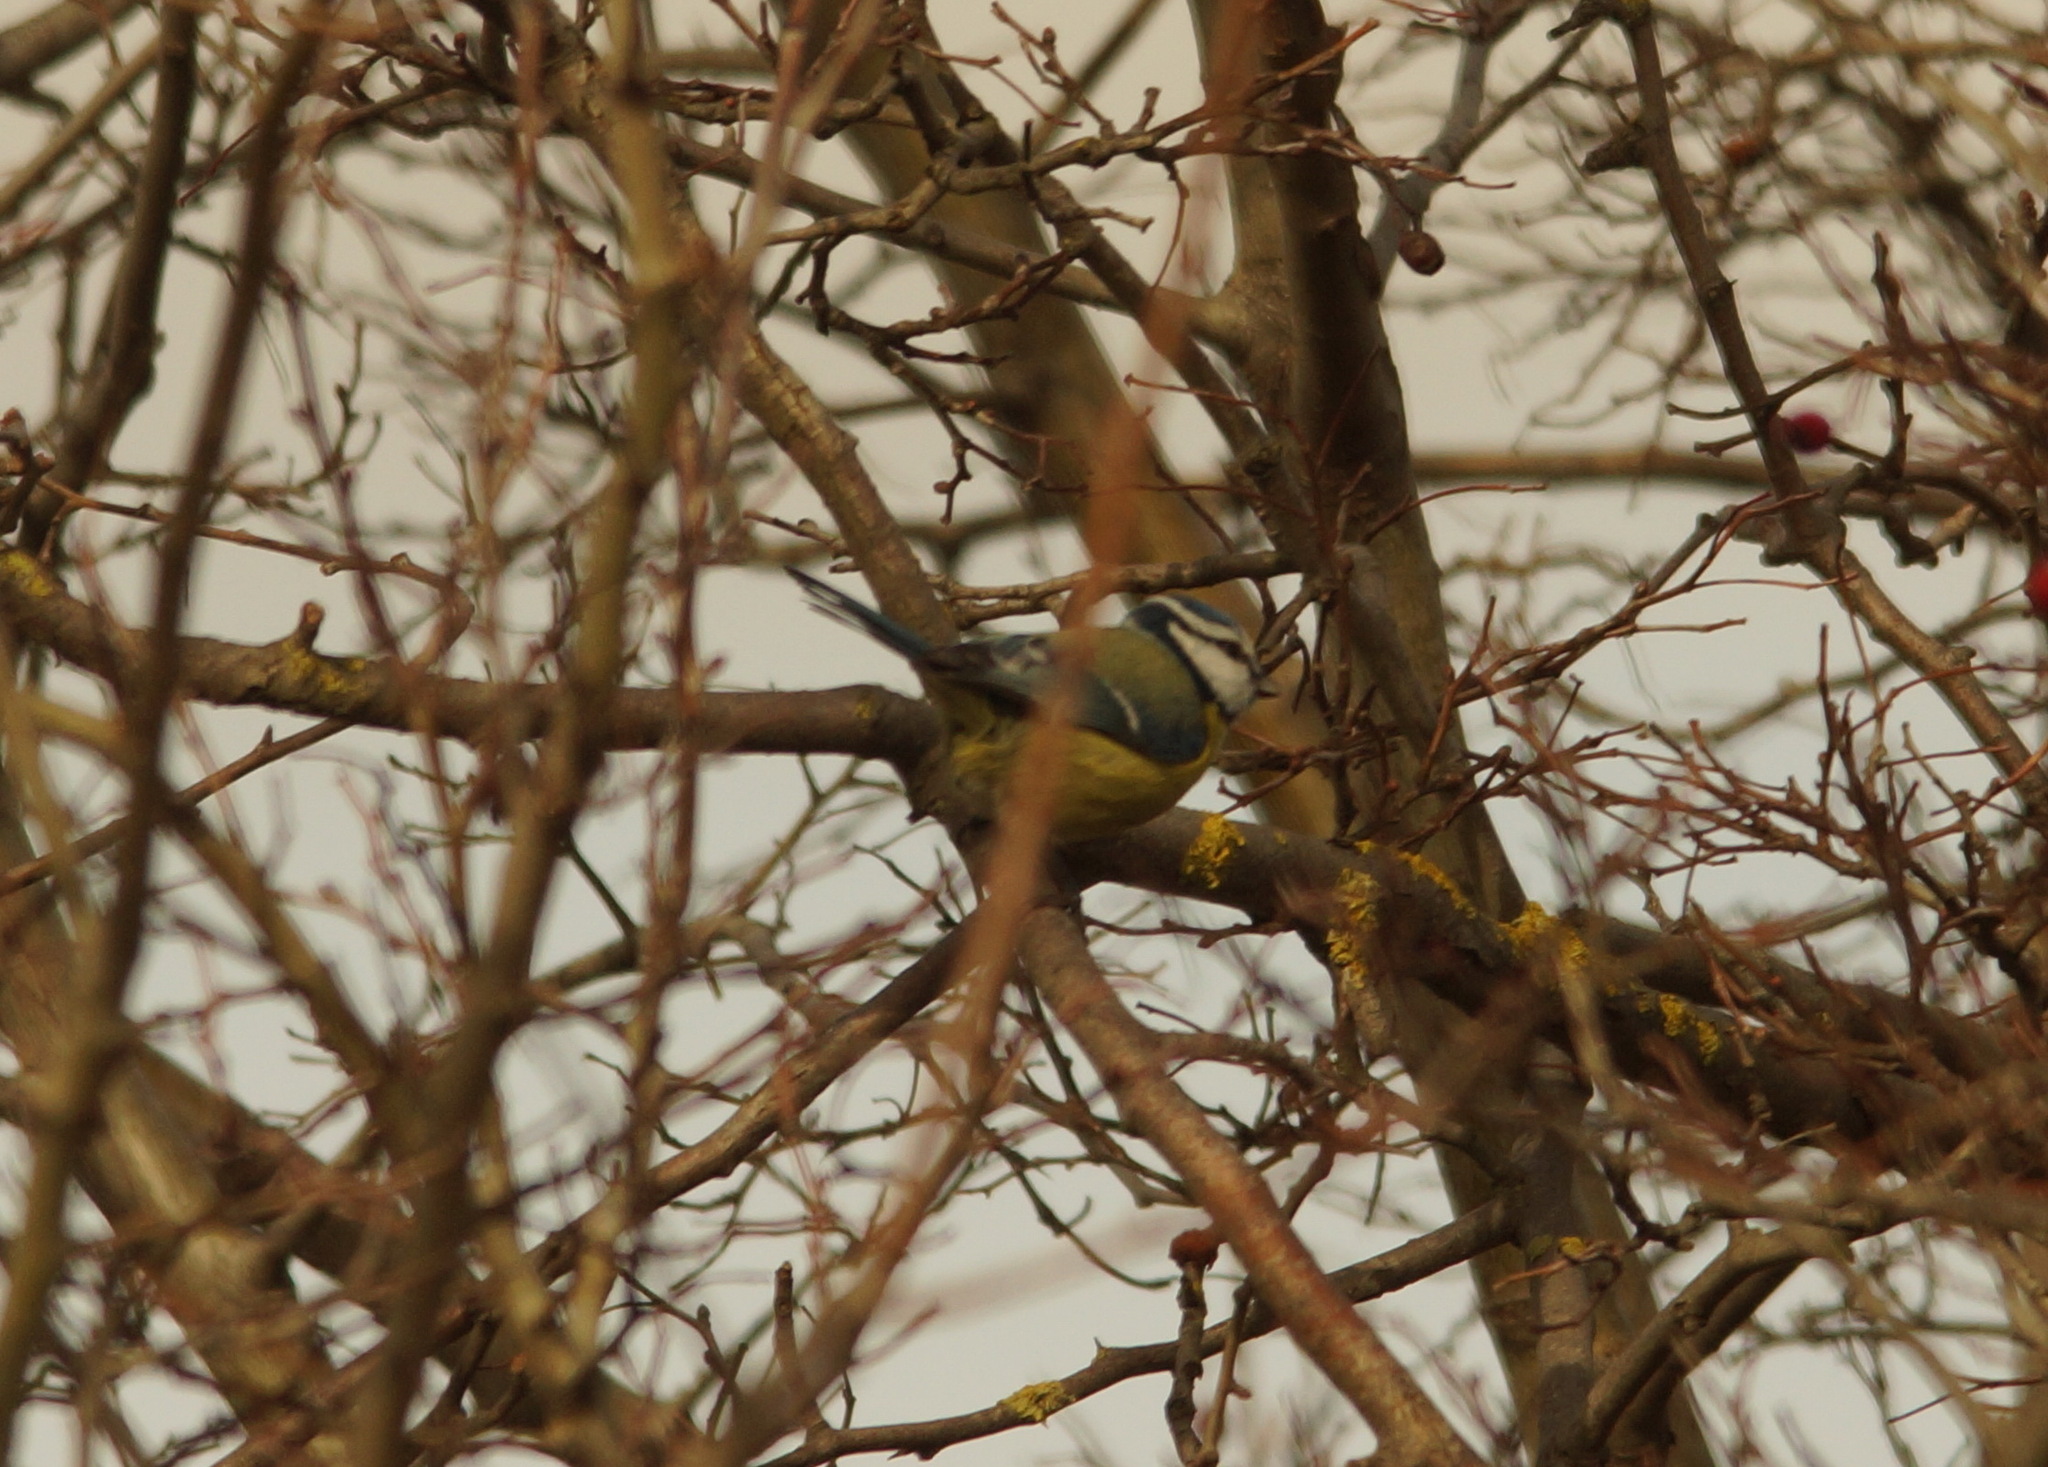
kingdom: Animalia
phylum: Chordata
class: Aves
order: Passeriformes
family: Paridae
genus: Cyanistes
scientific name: Cyanistes caeruleus
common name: Eurasian blue tit
